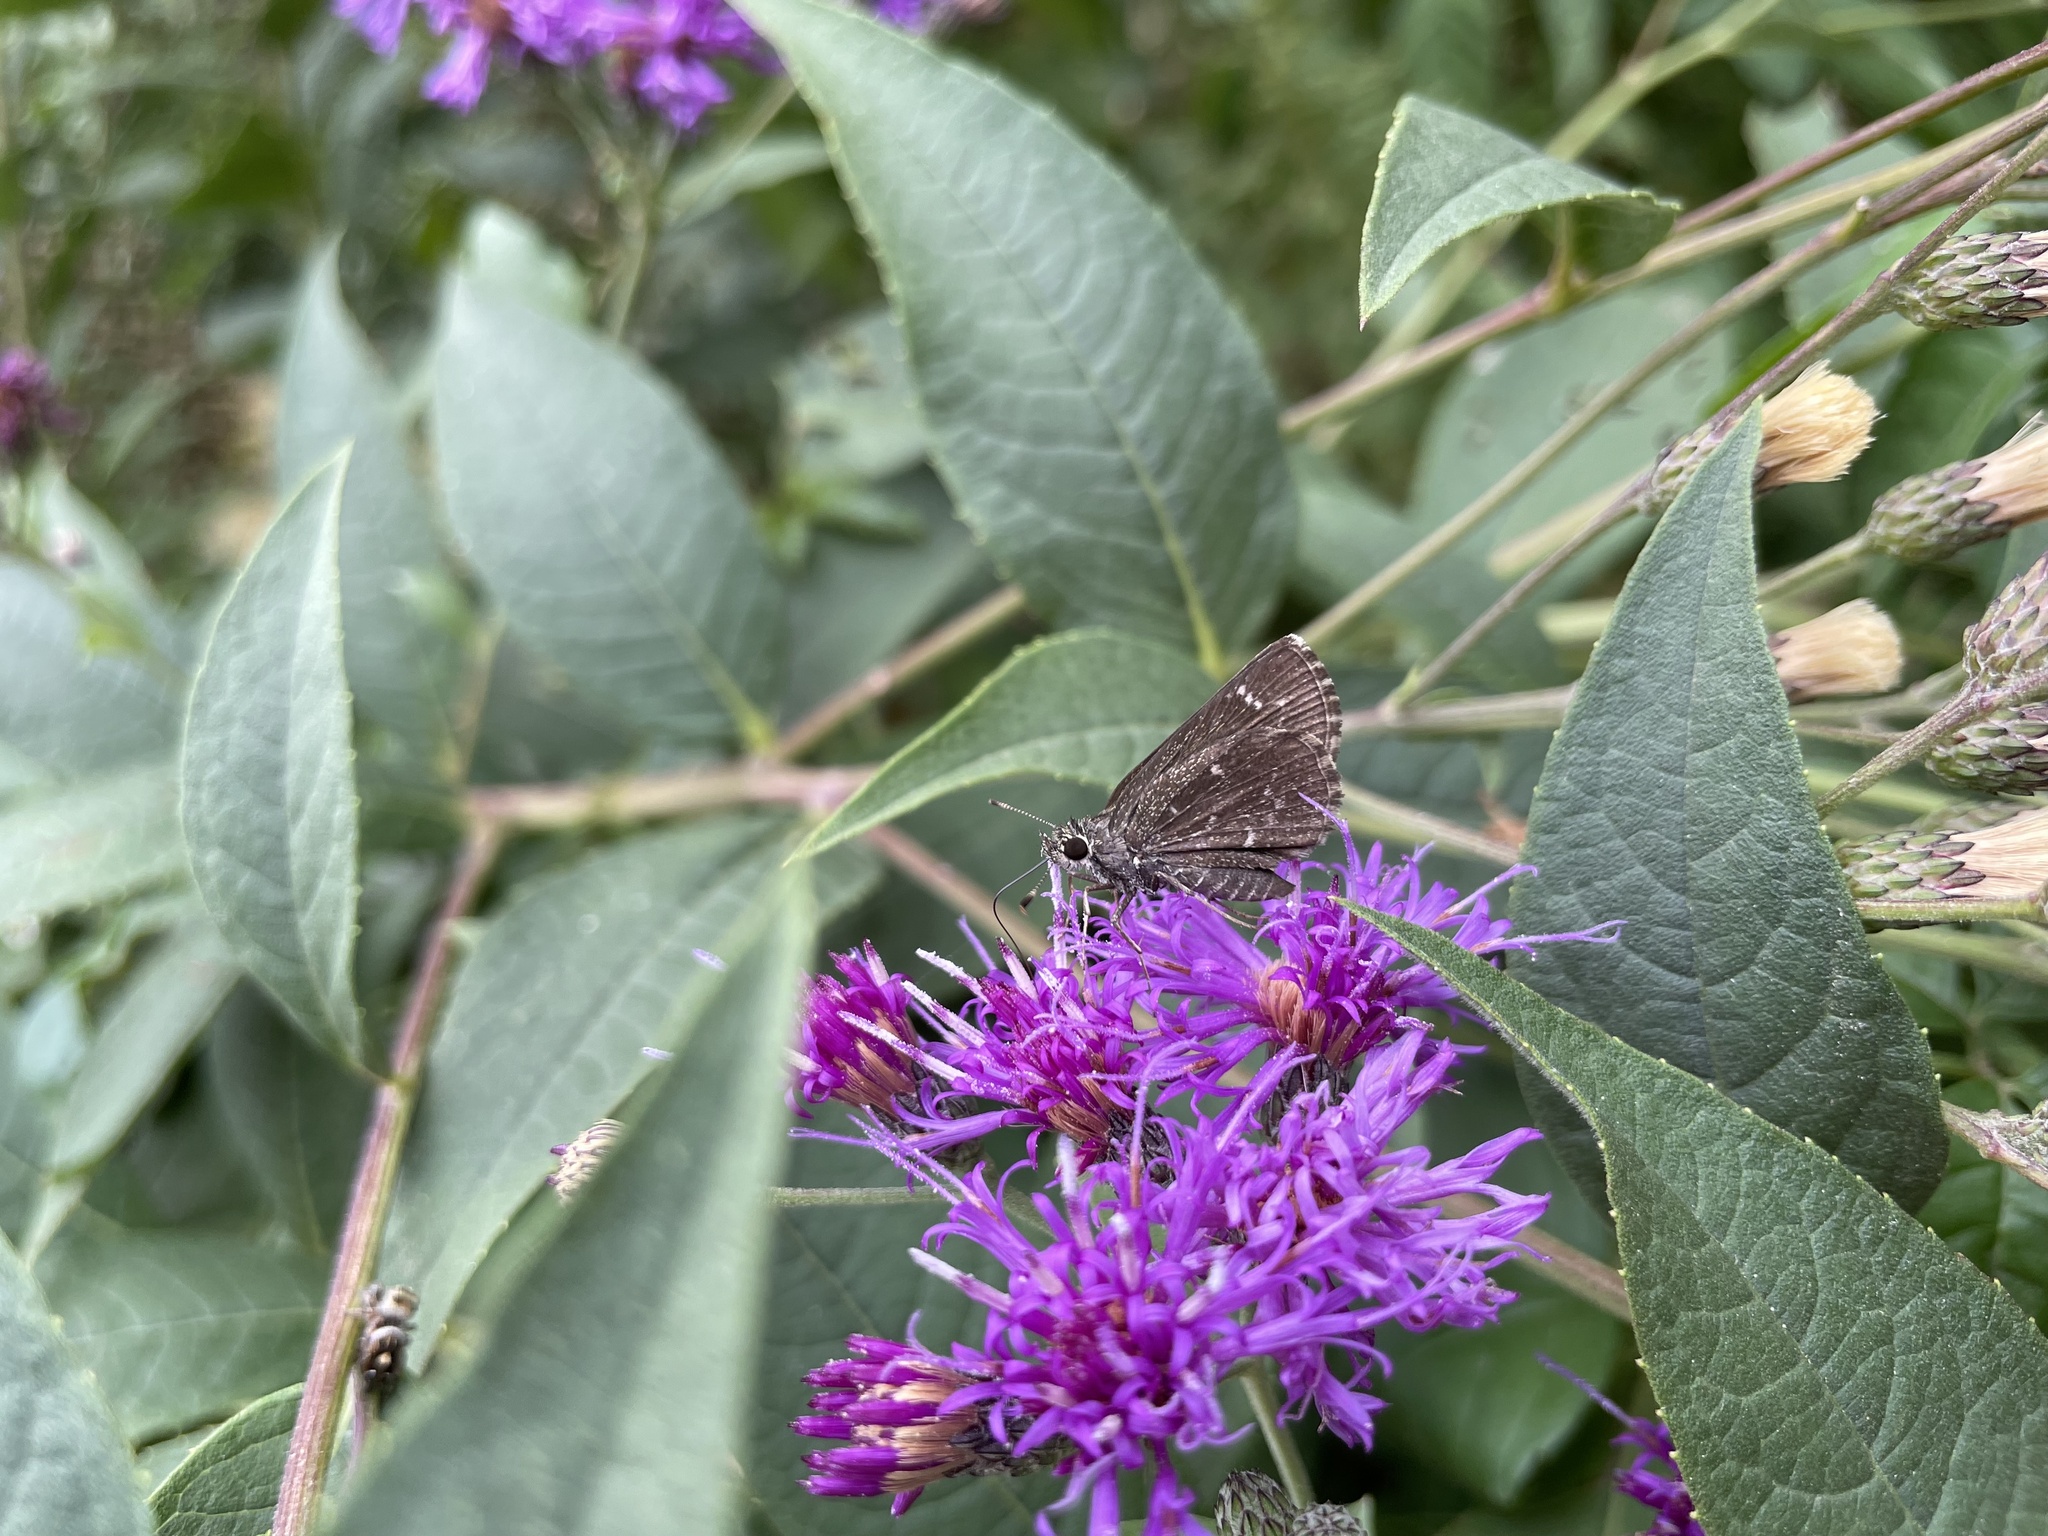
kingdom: Animalia
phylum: Arthropoda
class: Insecta
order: Lepidoptera
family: Hesperiidae
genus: Mastor
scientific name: Mastor celia
